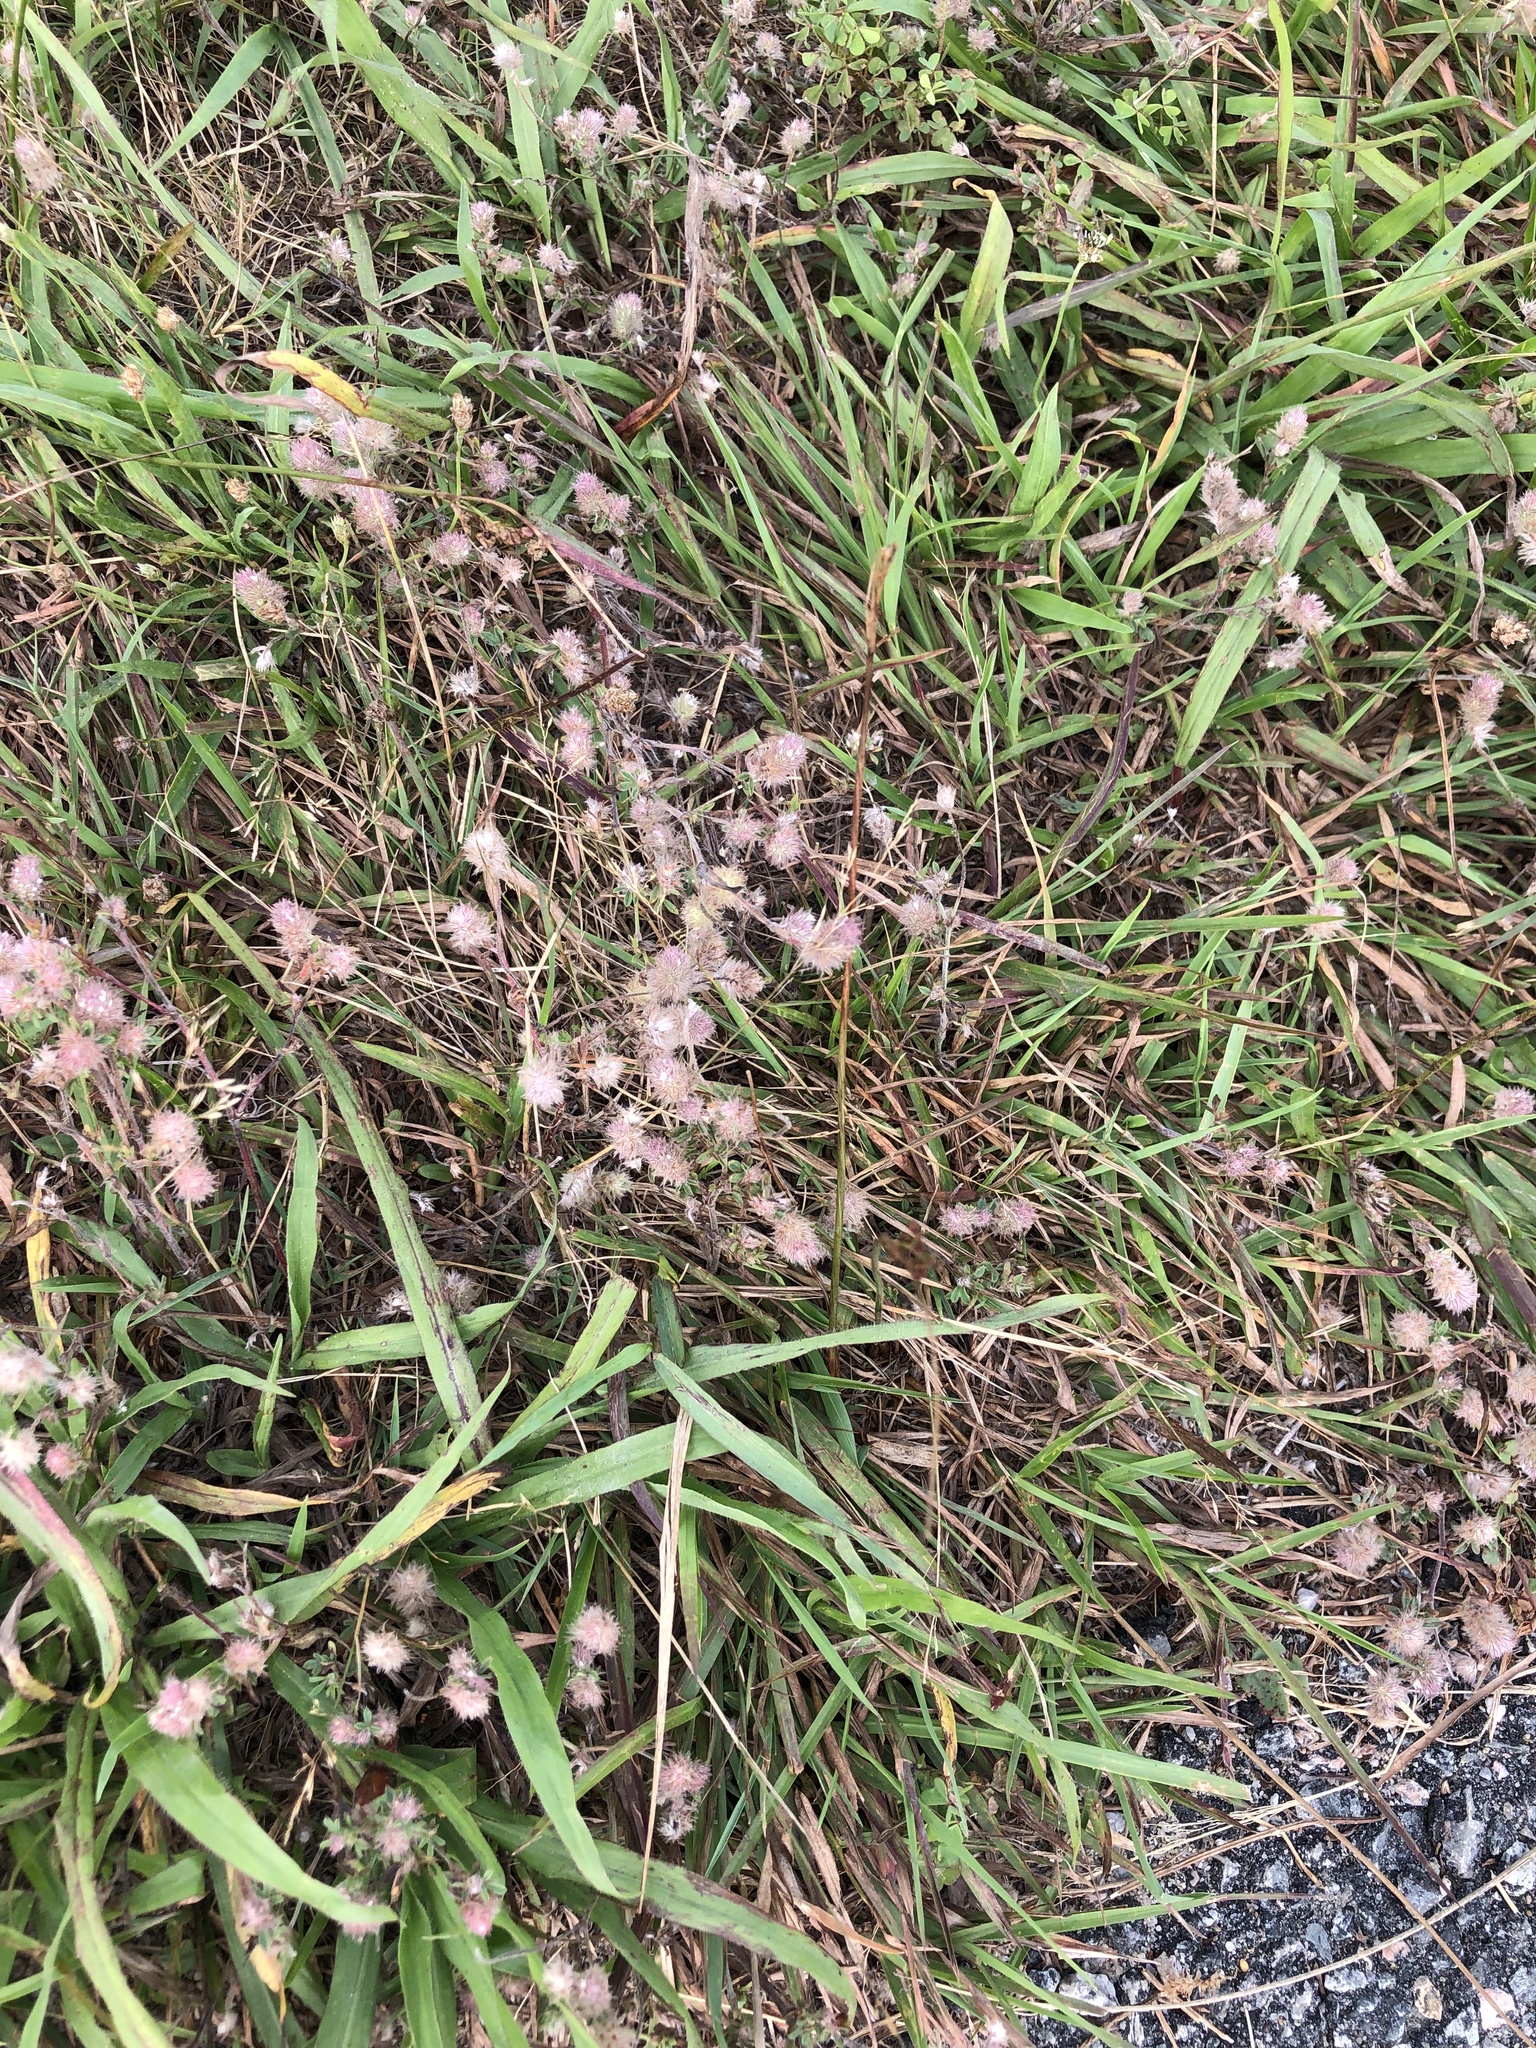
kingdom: Plantae
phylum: Tracheophyta
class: Magnoliopsida
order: Fabales
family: Fabaceae
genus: Trifolium
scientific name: Trifolium arvense
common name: Hare's-foot clover
